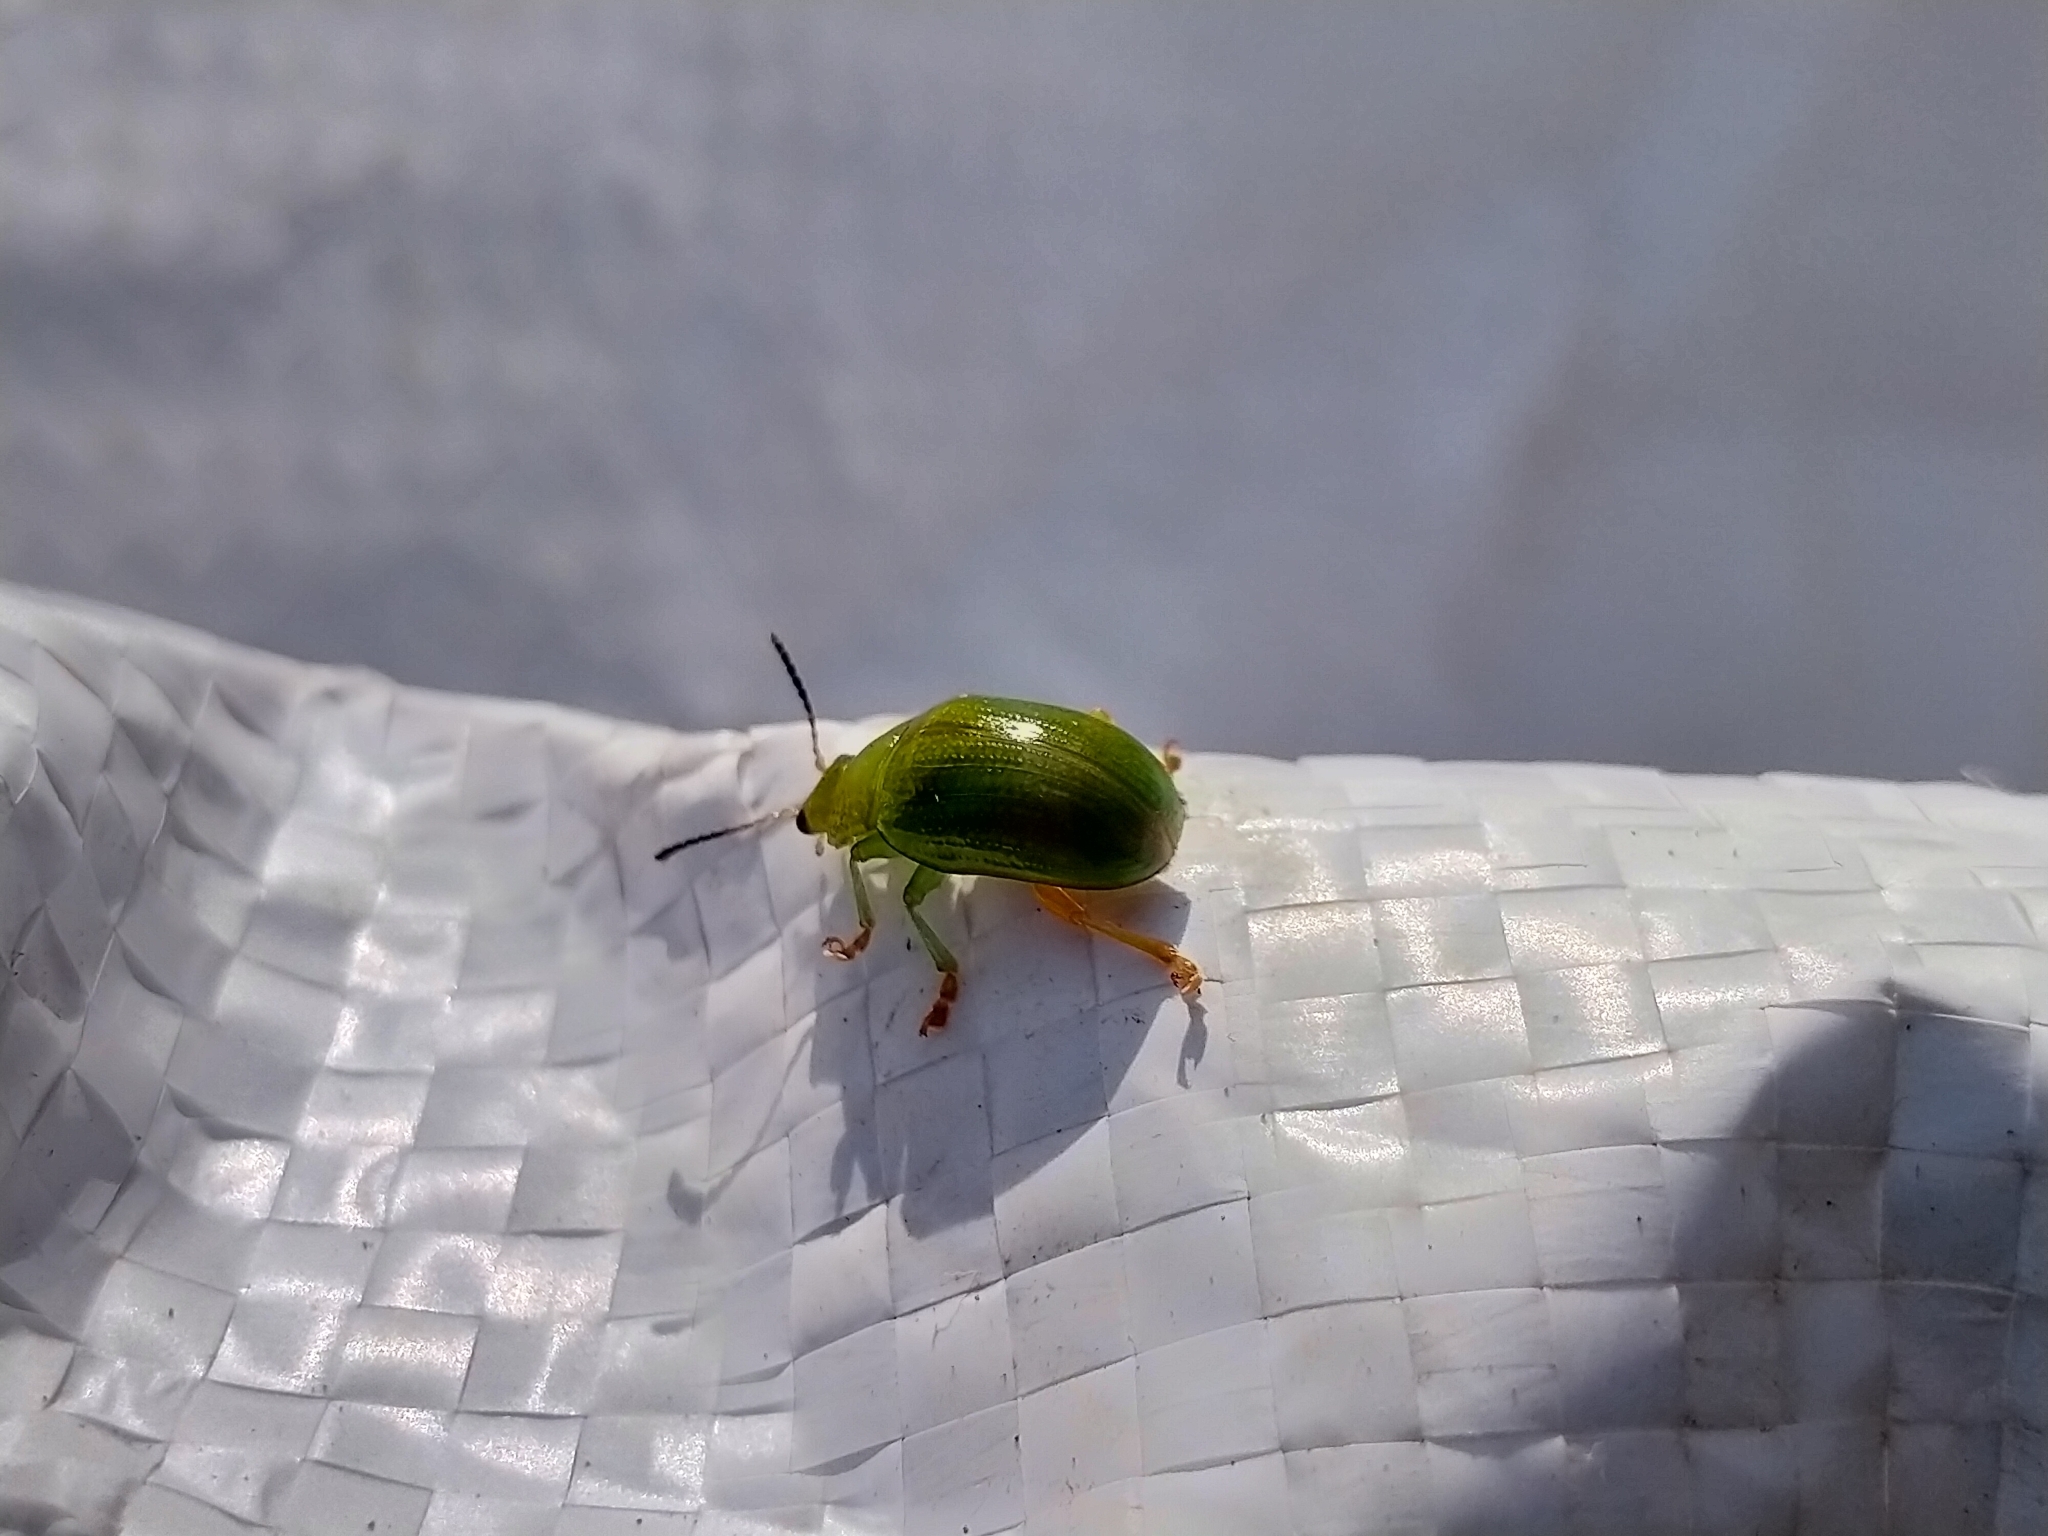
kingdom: Animalia
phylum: Arthropoda
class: Insecta
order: Coleoptera
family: Chrysomelidae
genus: Calomela
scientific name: Calomela
